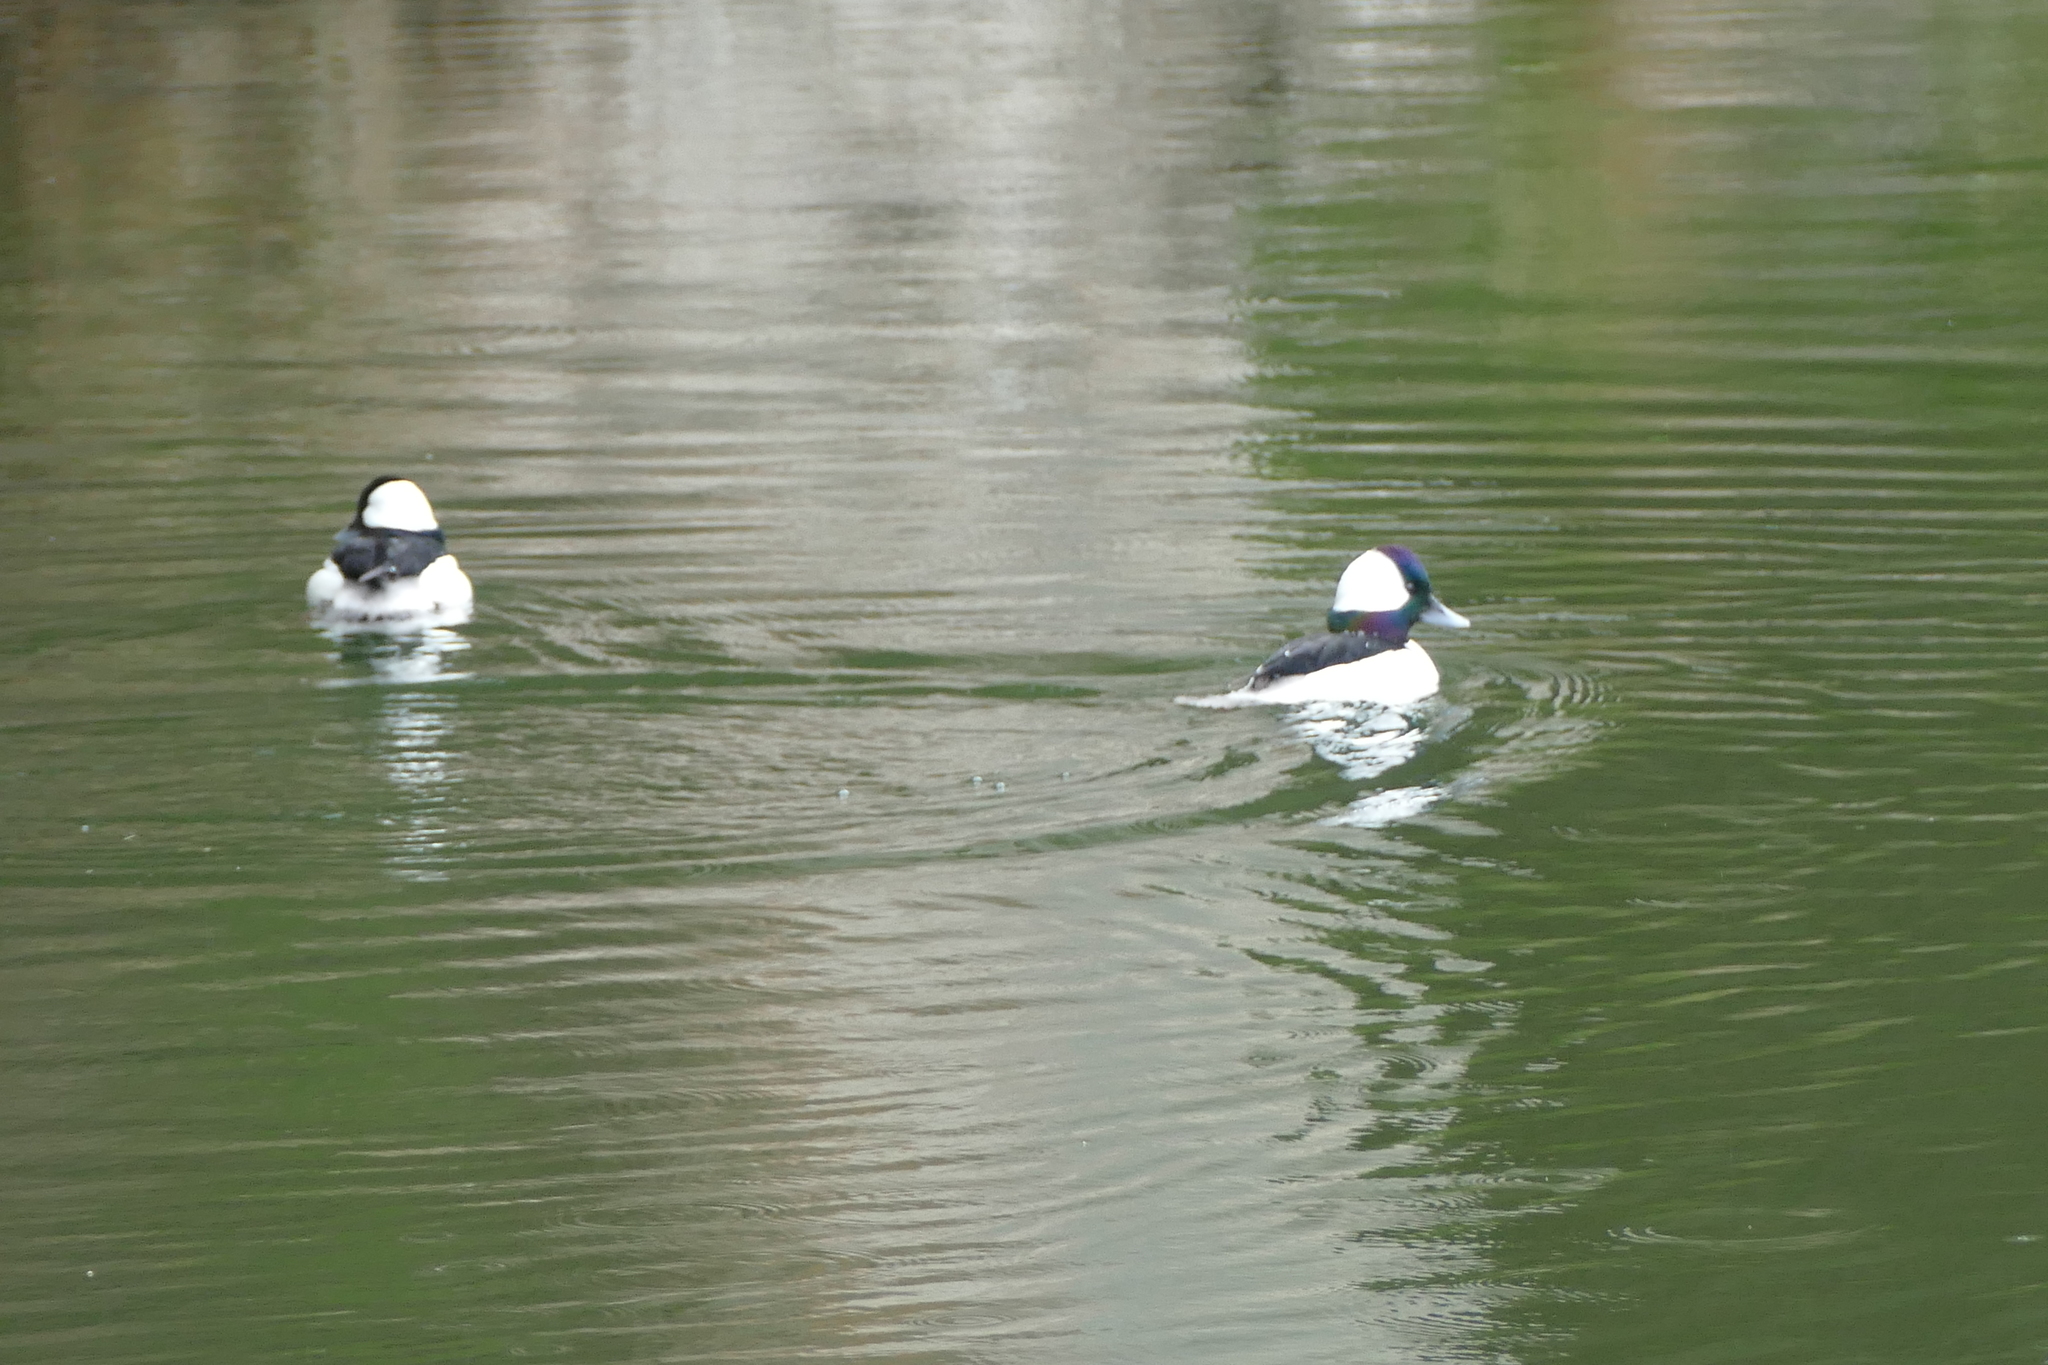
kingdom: Animalia
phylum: Chordata
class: Aves
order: Anseriformes
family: Anatidae
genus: Bucephala
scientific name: Bucephala albeola
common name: Bufflehead
